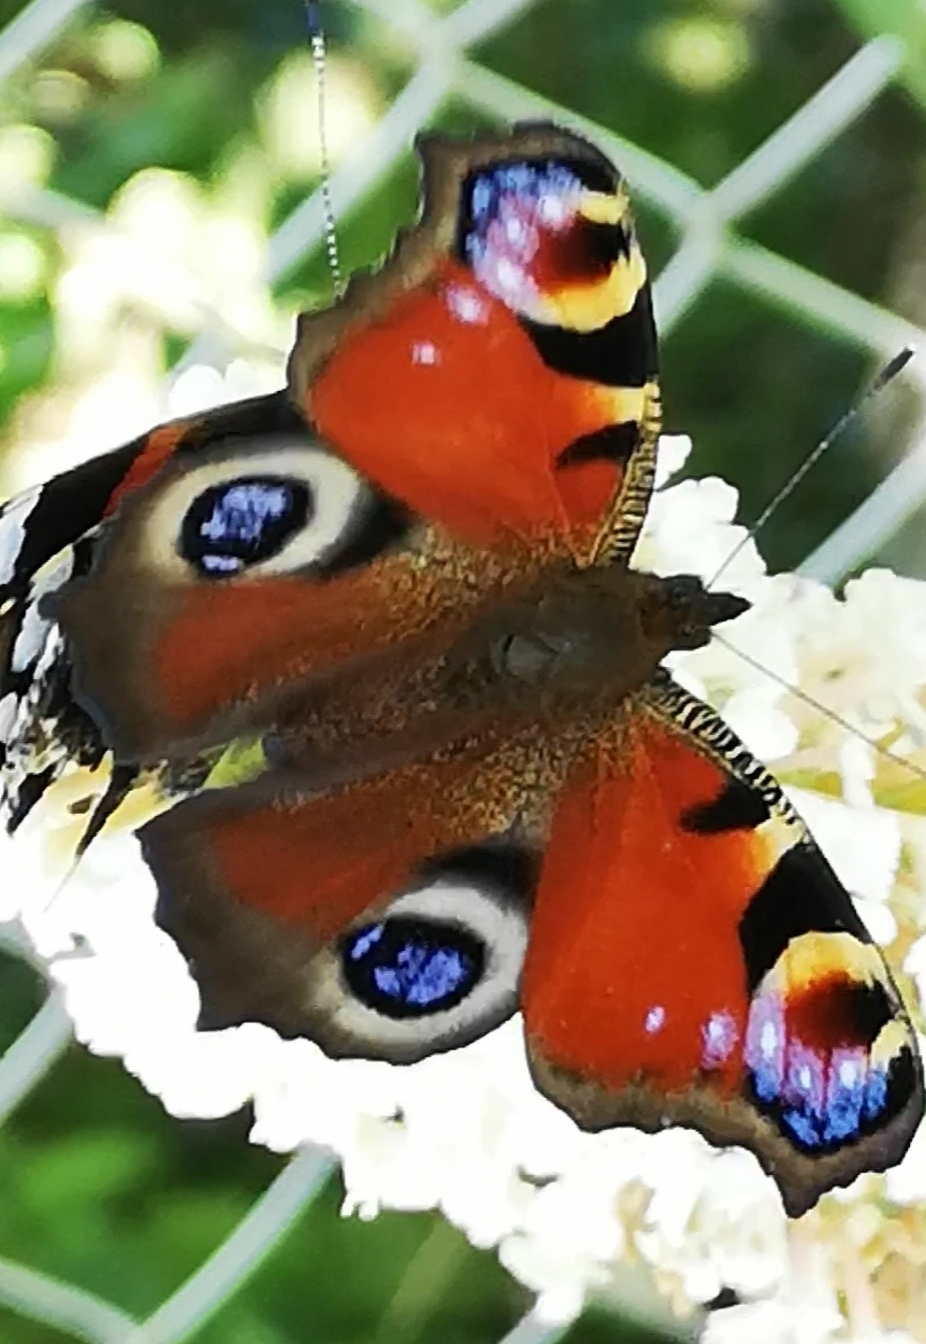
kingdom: Animalia
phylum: Arthropoda
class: Insecta
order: Lepidoptera
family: Nymphalidae
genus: Aglais
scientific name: Aglais io
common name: Peacock
